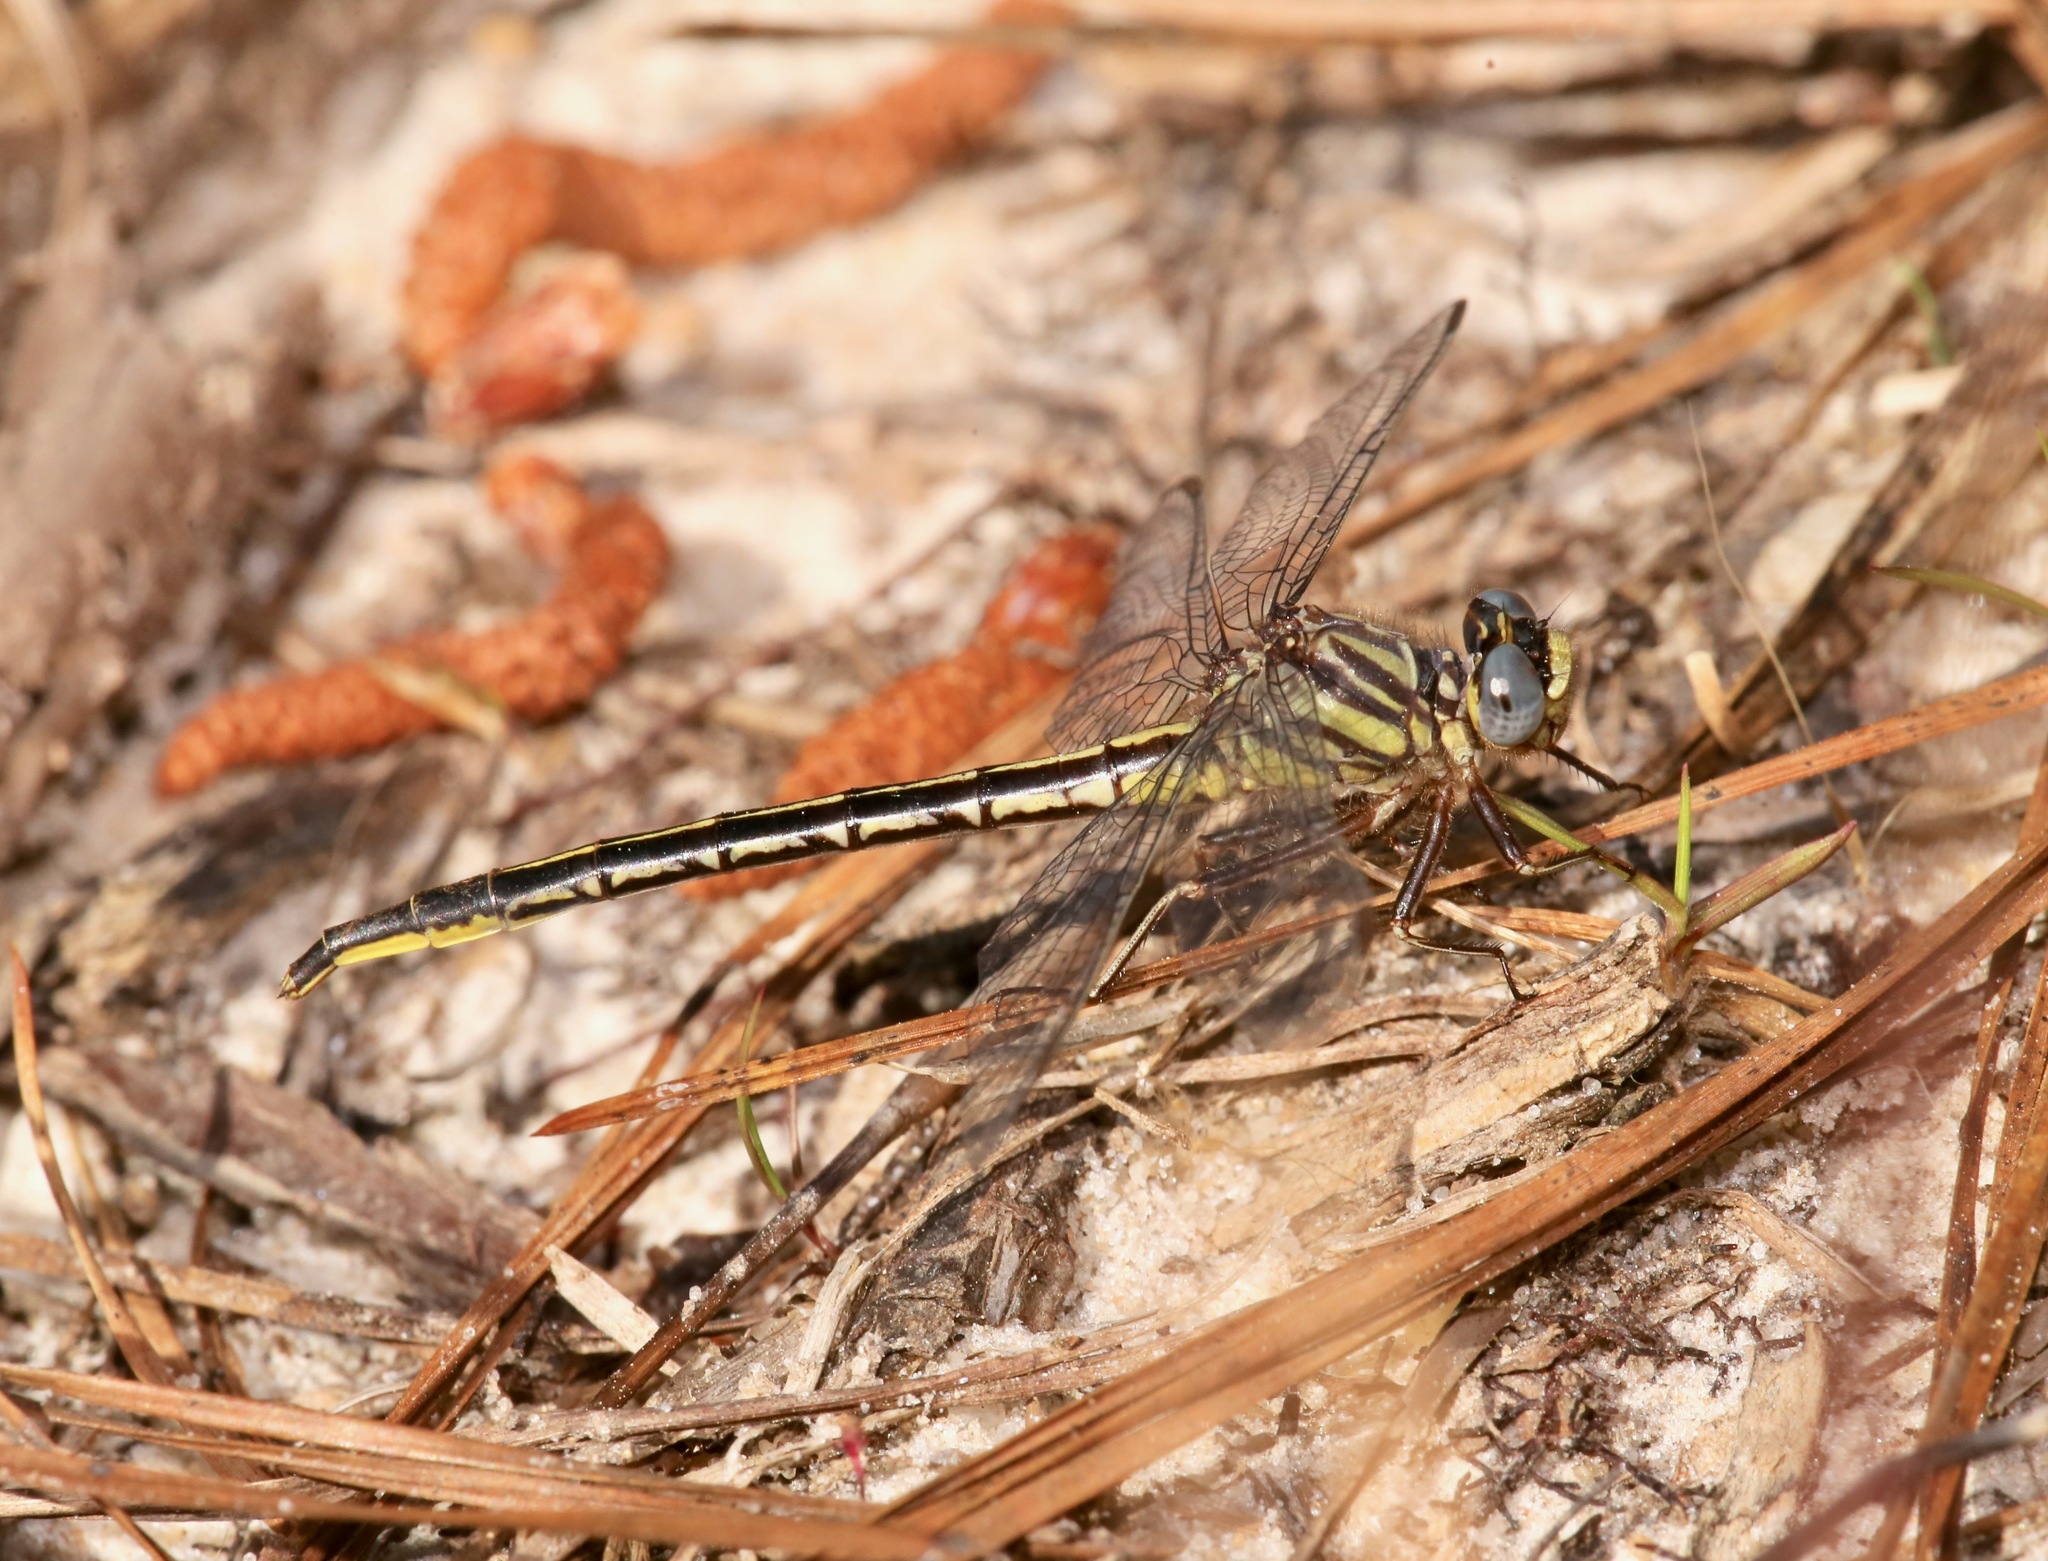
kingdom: Animalia
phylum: Arthropoda
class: Insecta
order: Odonata
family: Gomphidae
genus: Phanogomphus
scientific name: Phanogomphus westfalli
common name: Westfall’s clubtail
